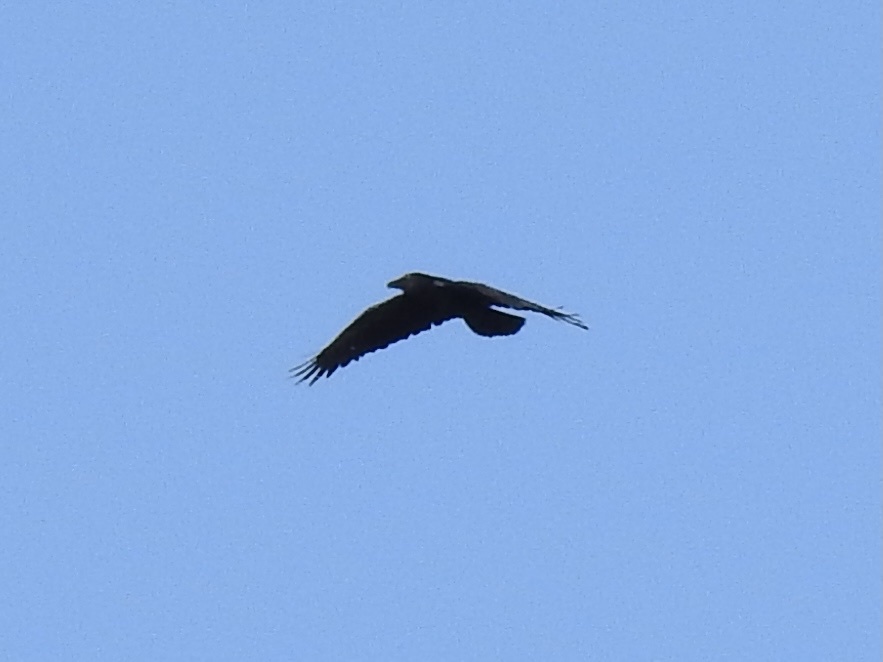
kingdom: Animalia
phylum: Chordata
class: Aves
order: Passeriformes
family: Corvidae
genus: Corvus
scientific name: Corvus corax
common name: Common raven
